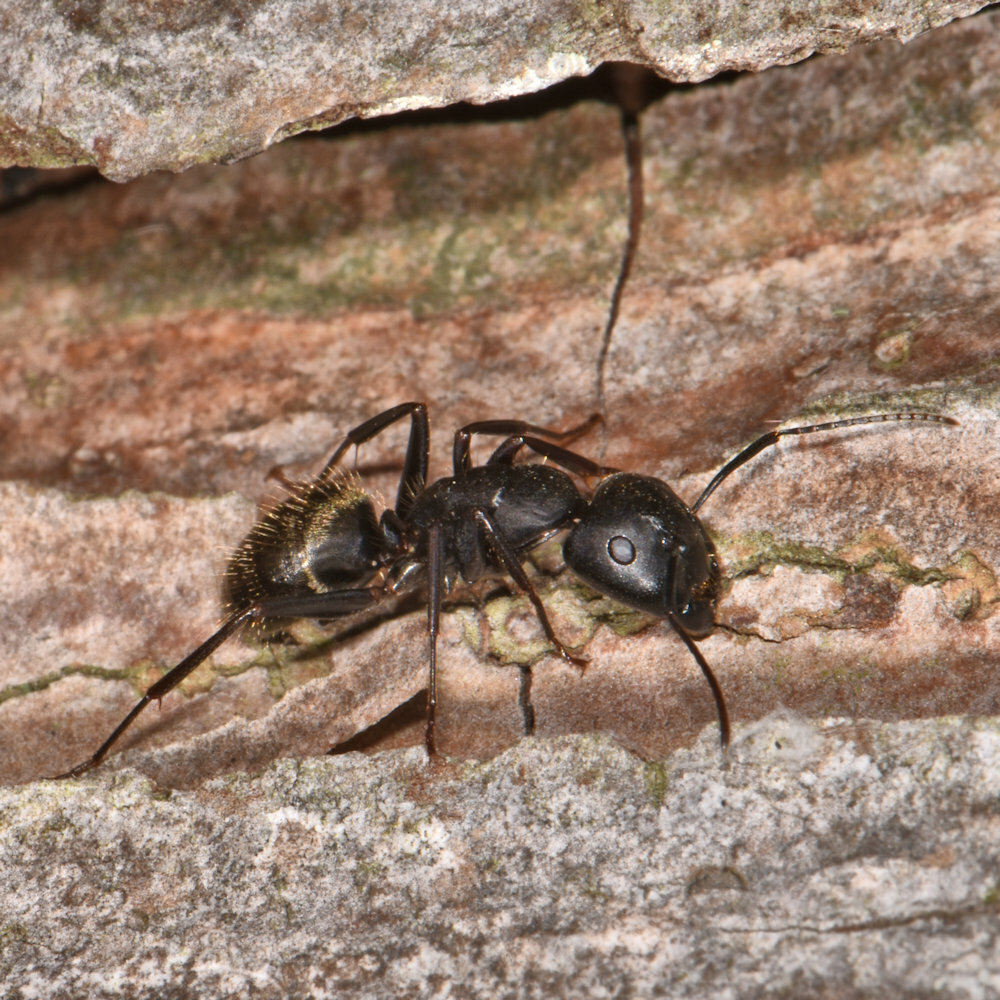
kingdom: Animalia
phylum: Arthropoda
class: Insecta
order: Hymenoptera
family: Formicidae
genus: Camponotus
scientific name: Camponotus pennsylvanicus
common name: Black carpenter ant
